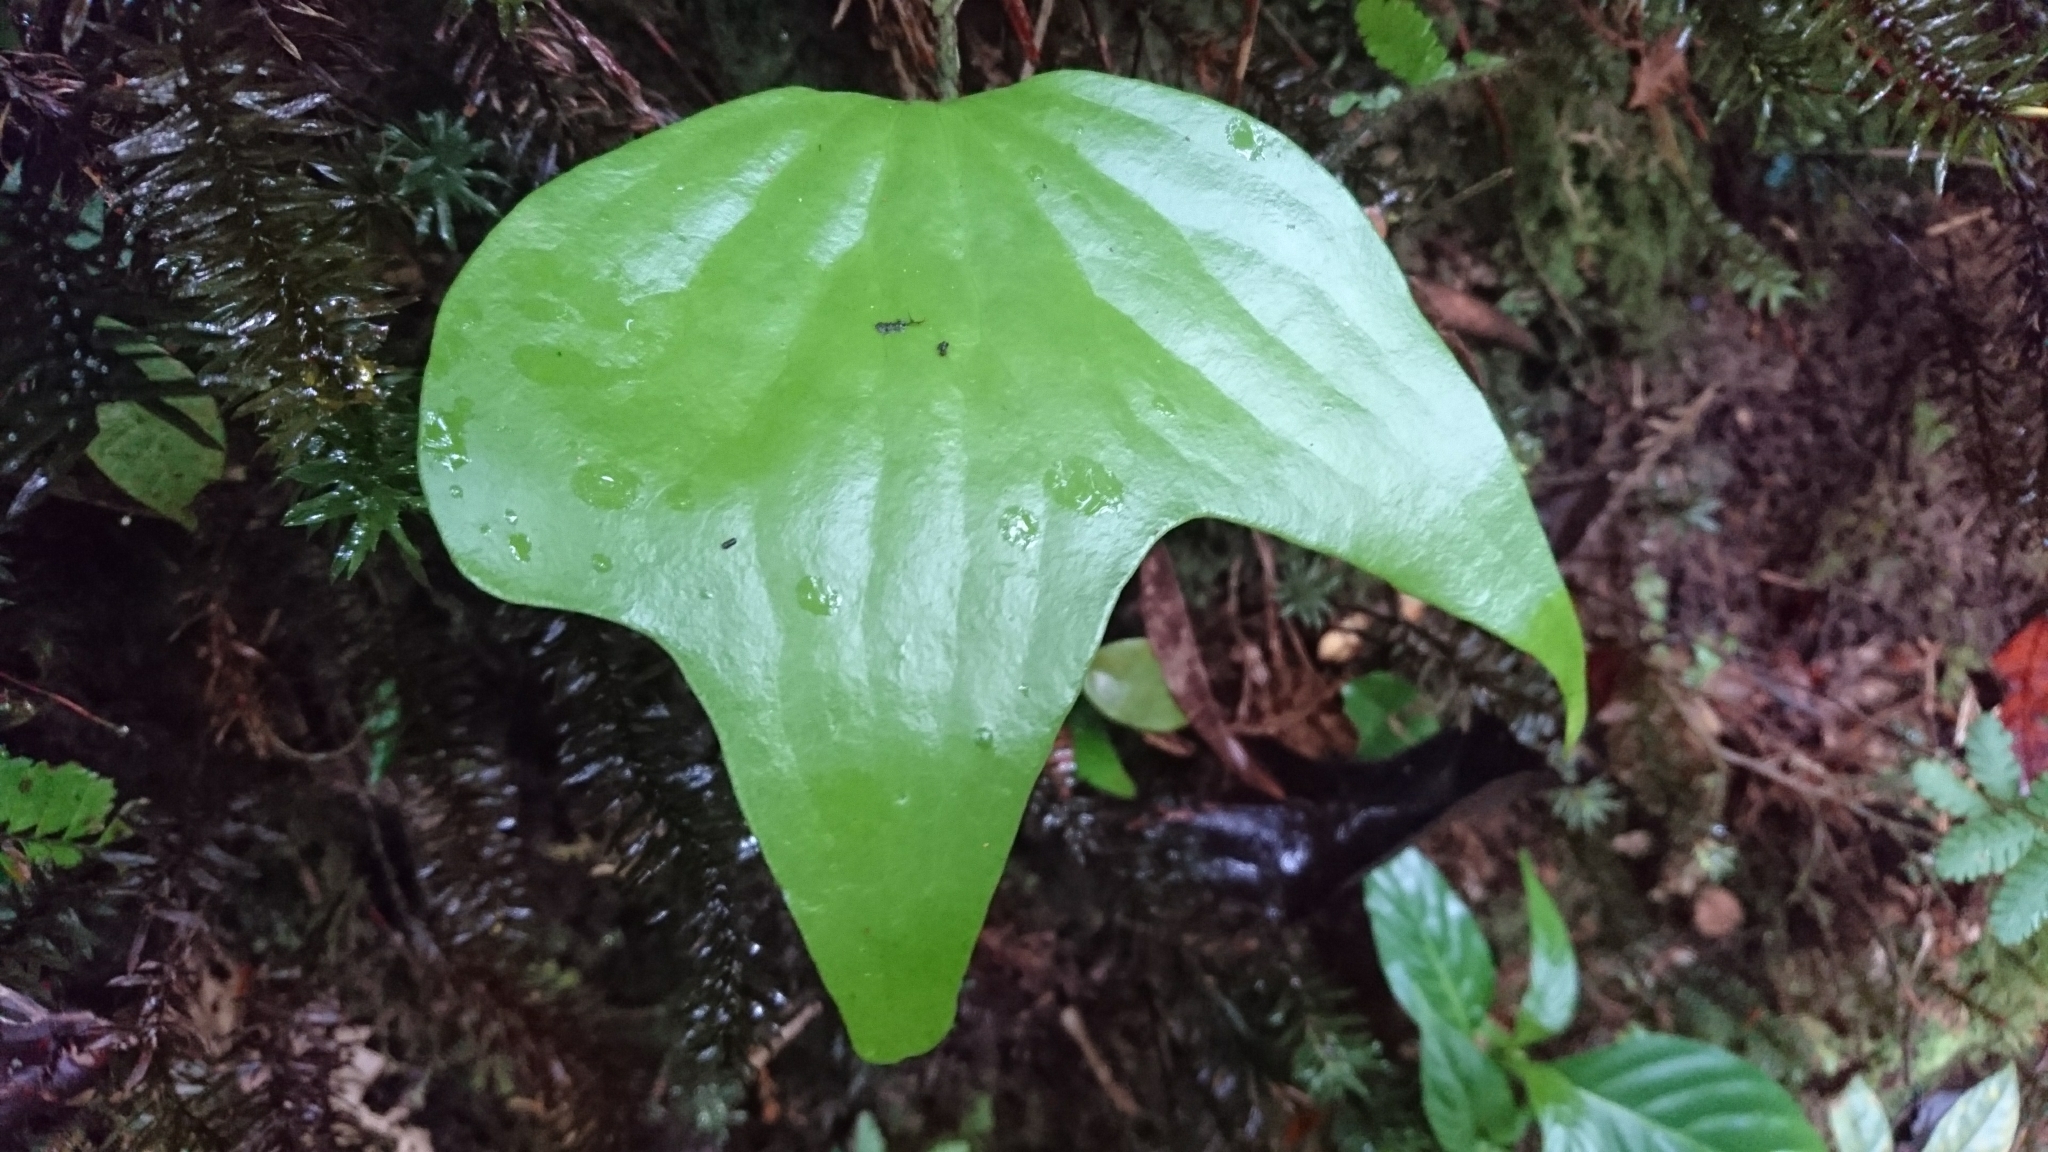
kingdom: Plantae
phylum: Tracheophyta
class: Polypodiopsida
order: Gleicheniales
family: Dipteridaceae
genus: Cheiropleuria
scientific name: Cheiropleuria bicuspis
